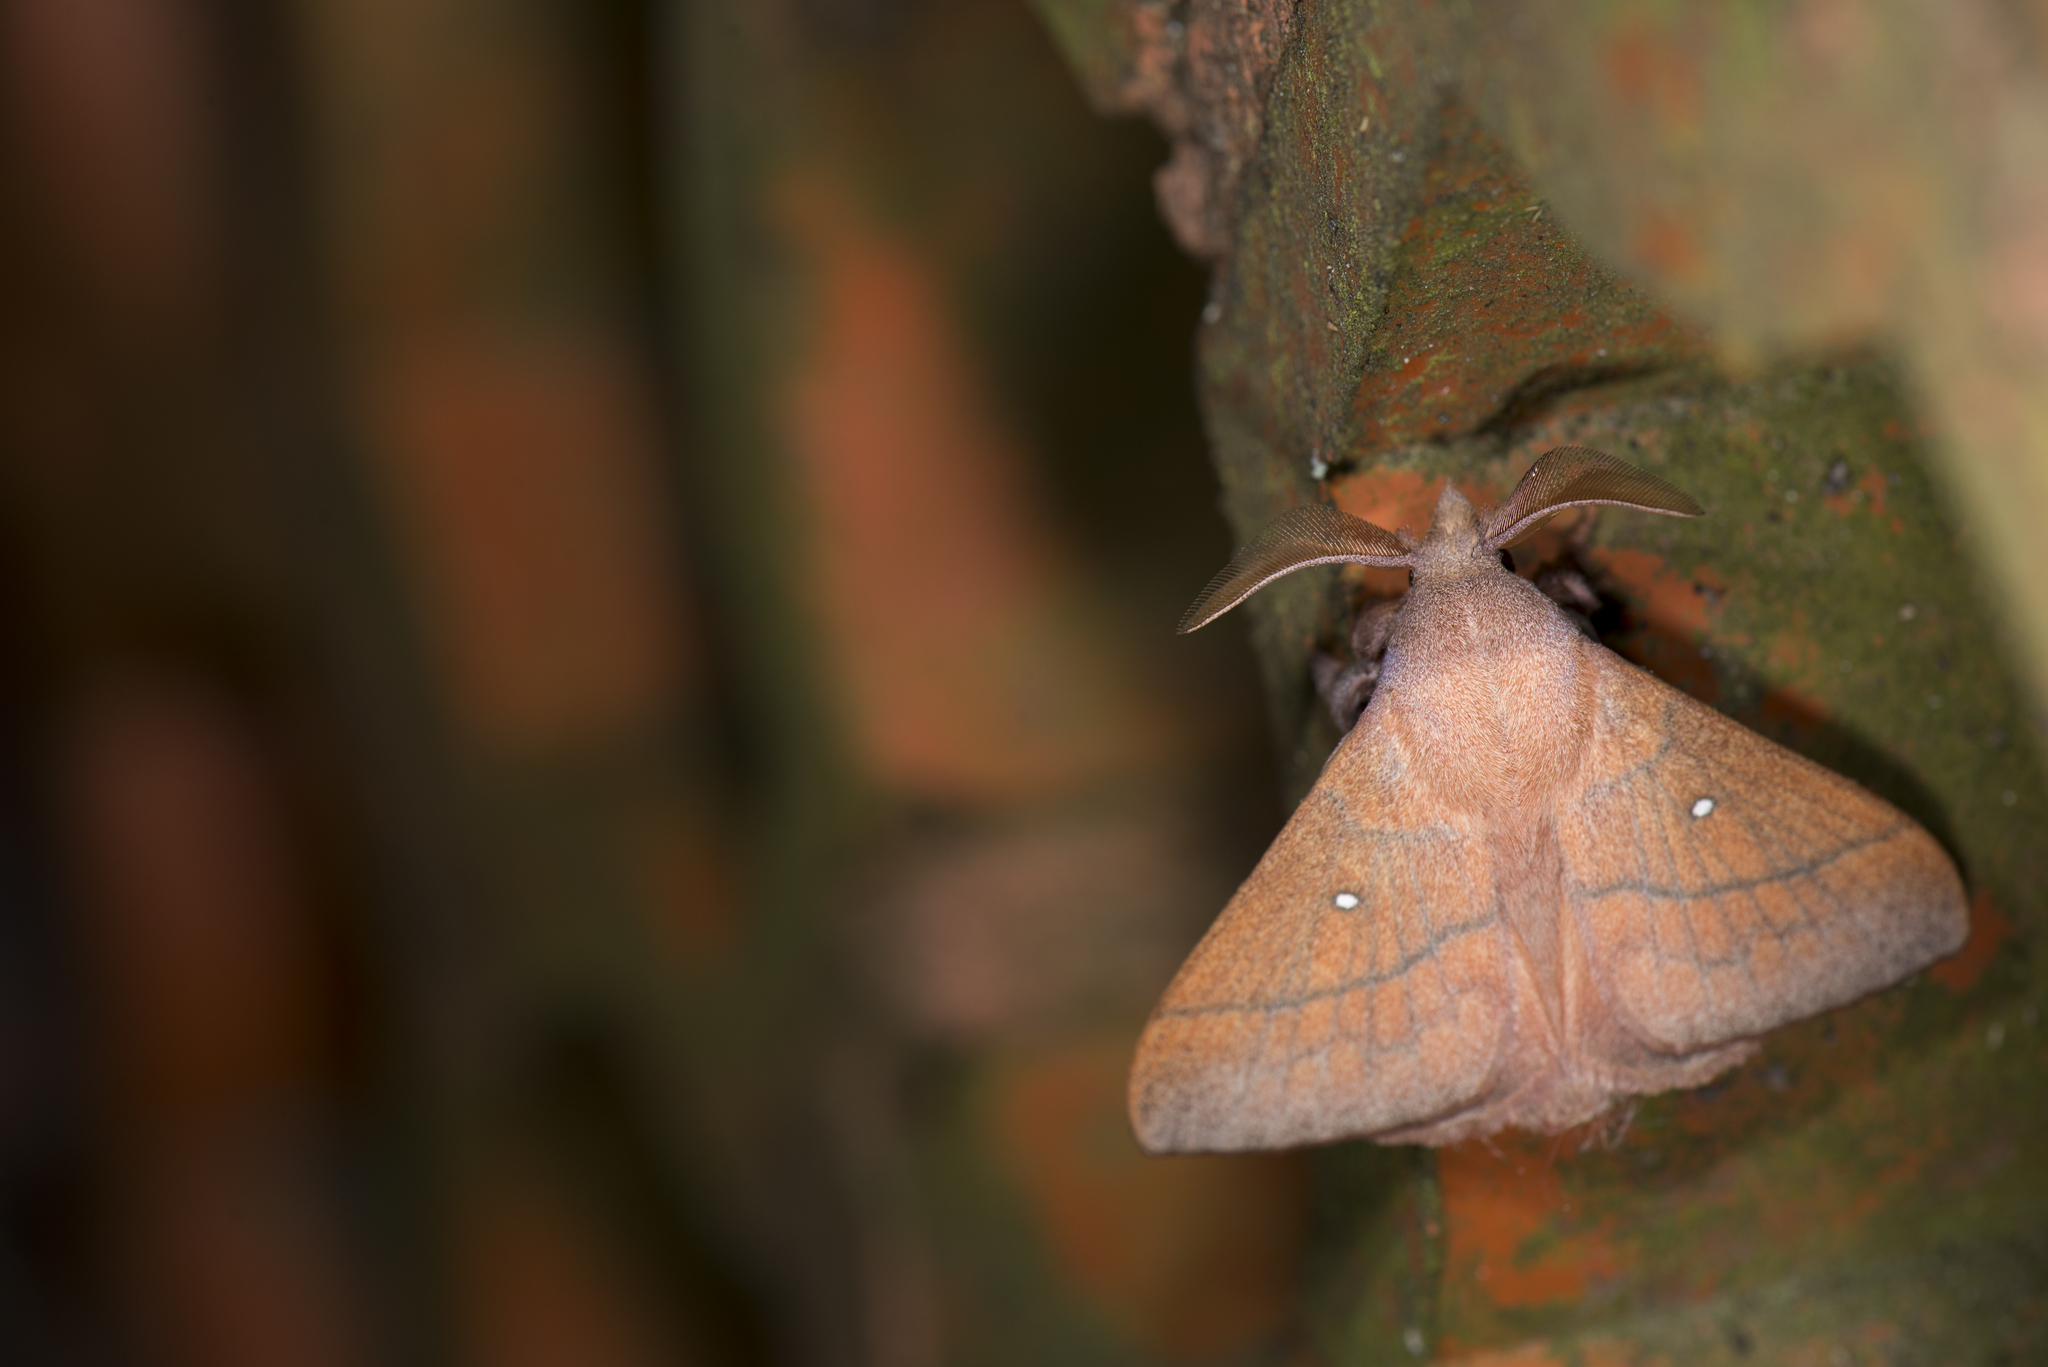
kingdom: Animalia
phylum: Arthropoda
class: Insecta
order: Lepidoptera
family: Lasiocampidae
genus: Odonestis
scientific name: Odonestis bheroba
